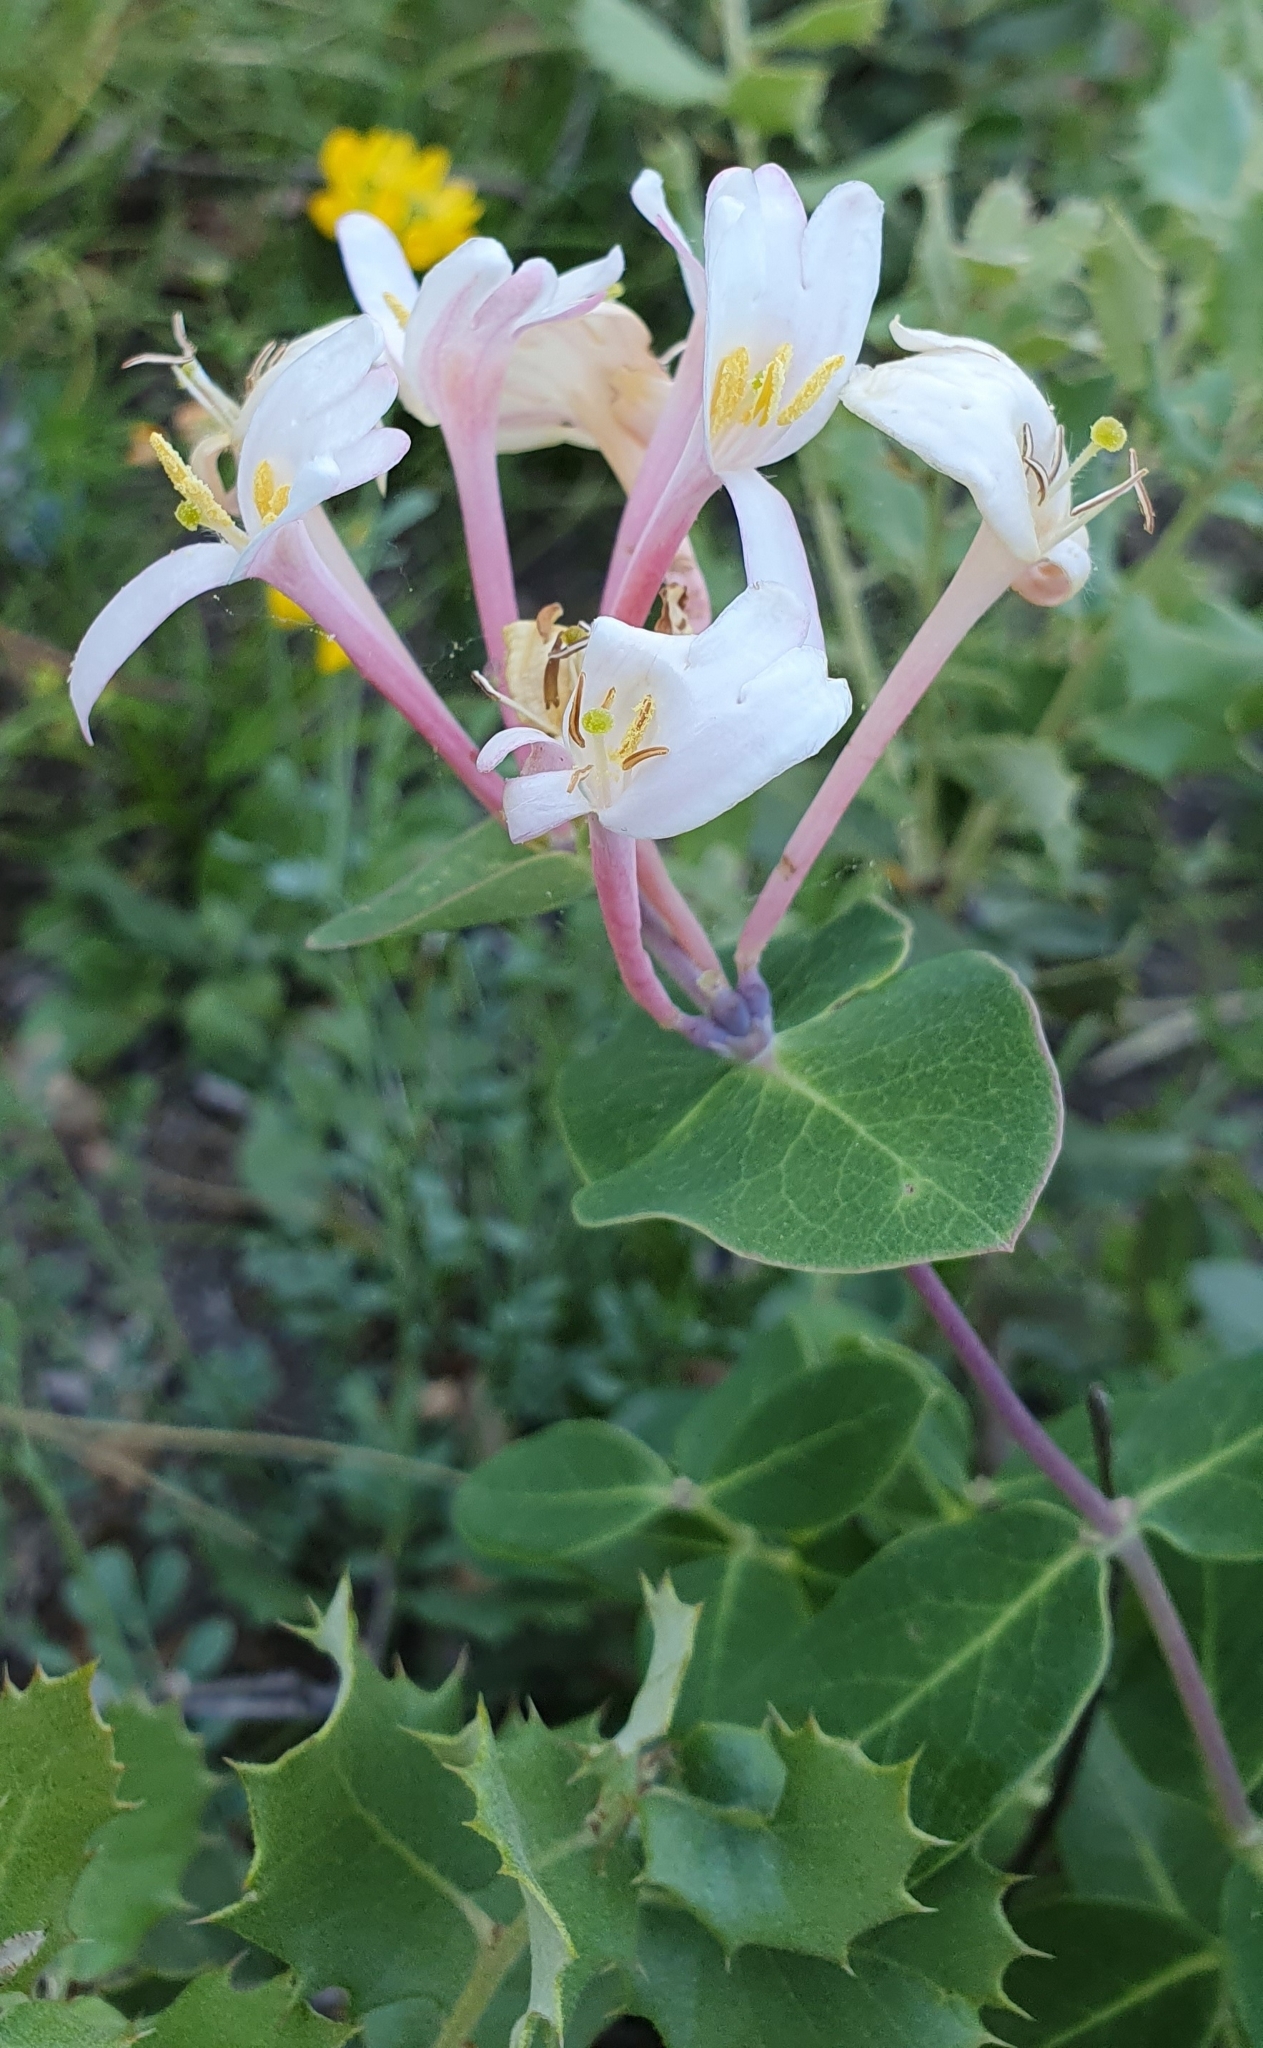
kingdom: Plantae
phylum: Tracheophyta
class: Magnoliopsida
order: Dipsacales
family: Caprifoliaceae
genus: Lonicera
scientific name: Lonicera implexa
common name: Minorca honeysuckle
